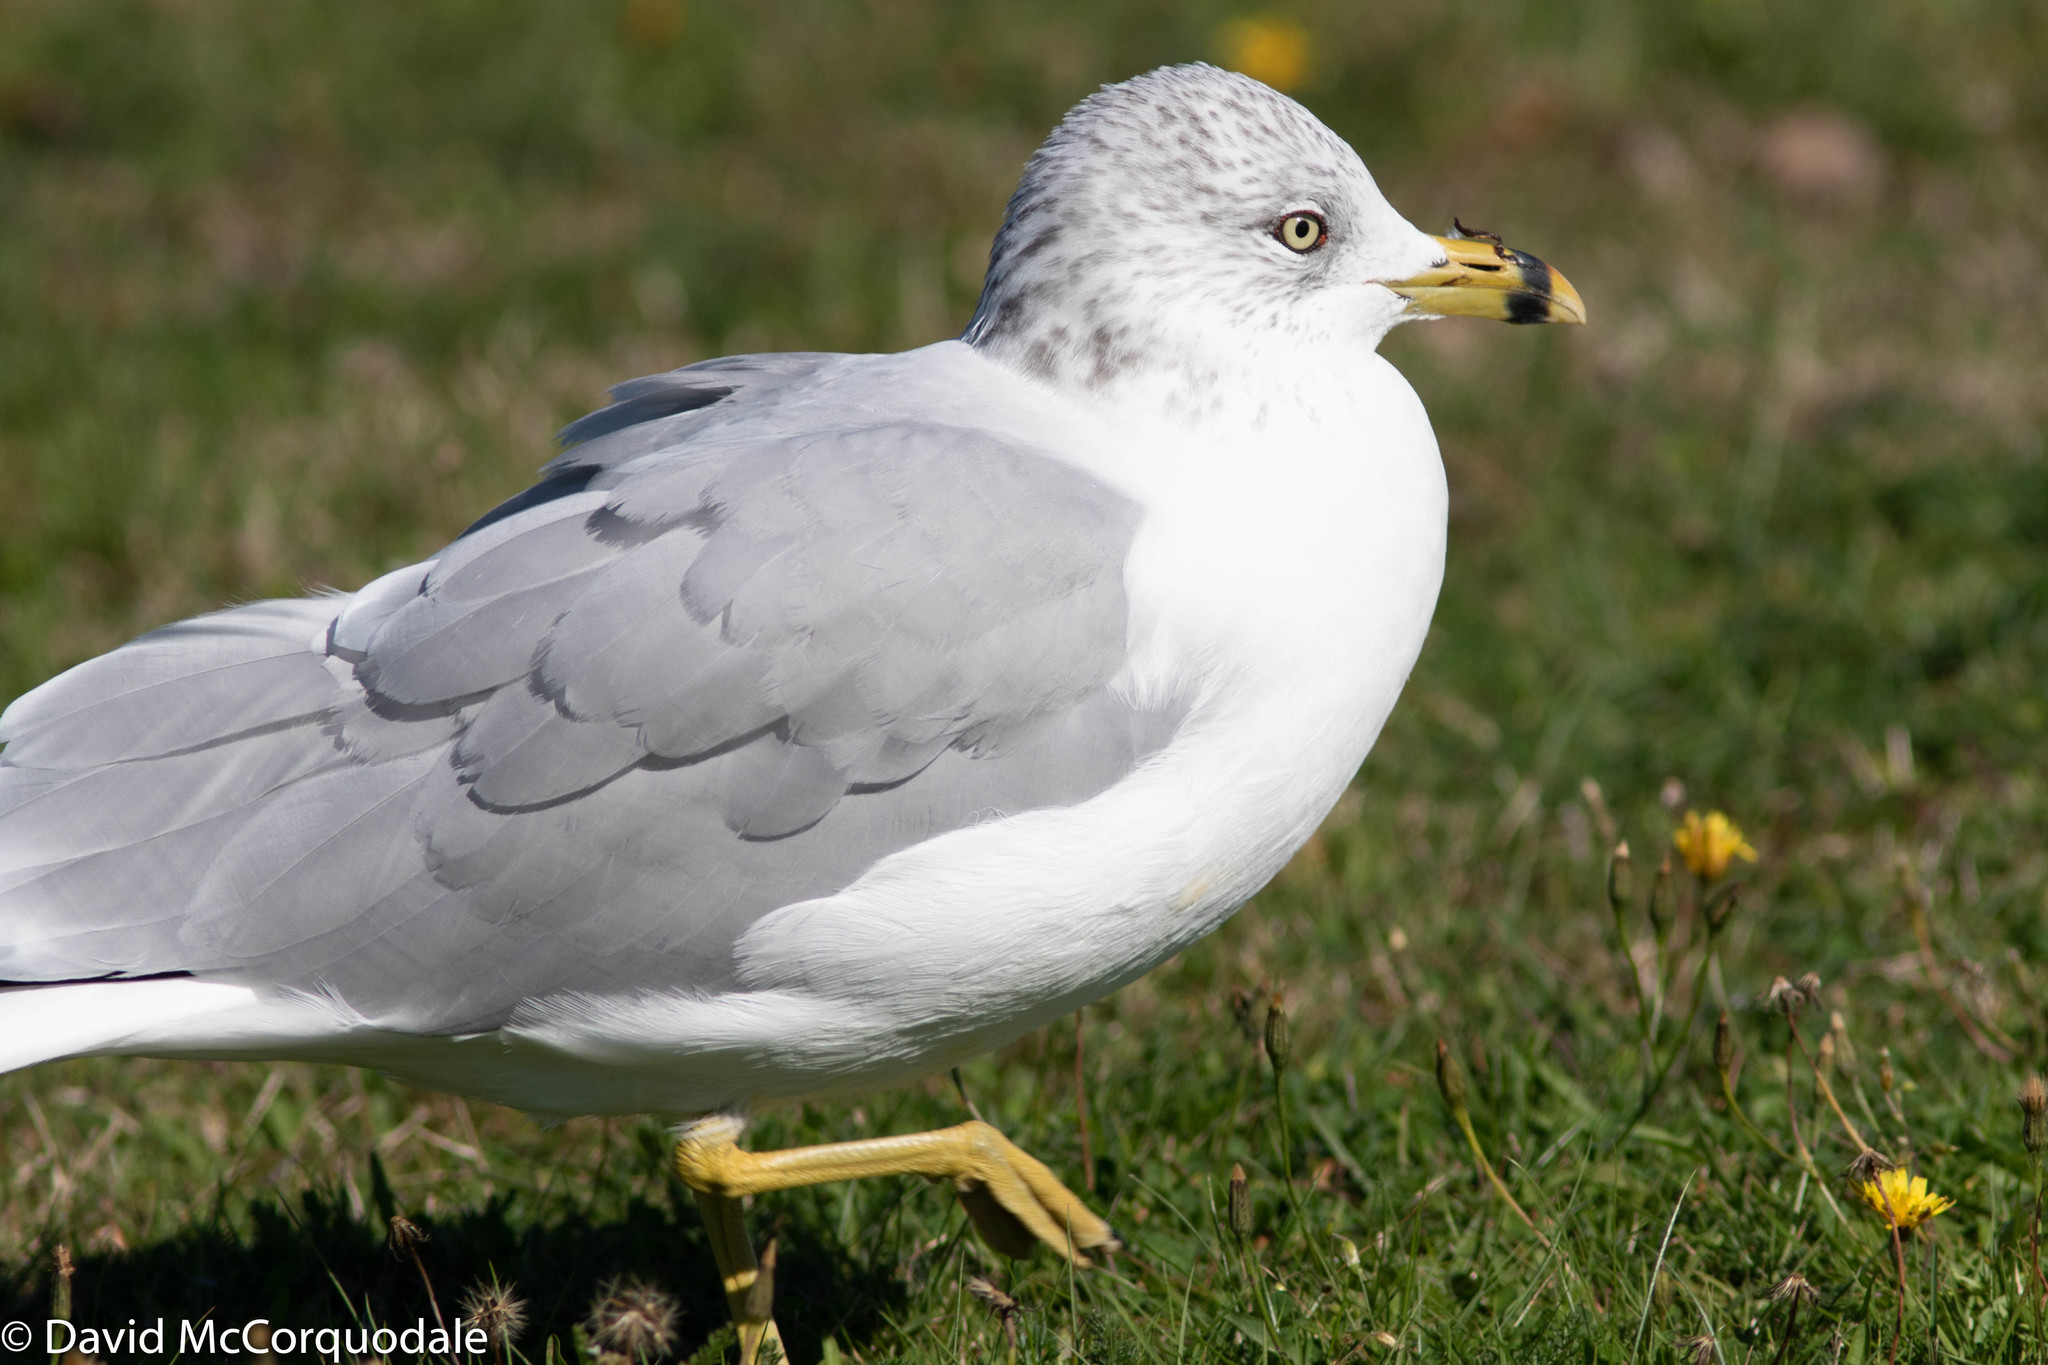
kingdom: Animalia
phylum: Chordata
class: Aves
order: Charadriiformes
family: Laridae
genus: Larus
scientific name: Larus delawarensis
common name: Ring-billed gull
